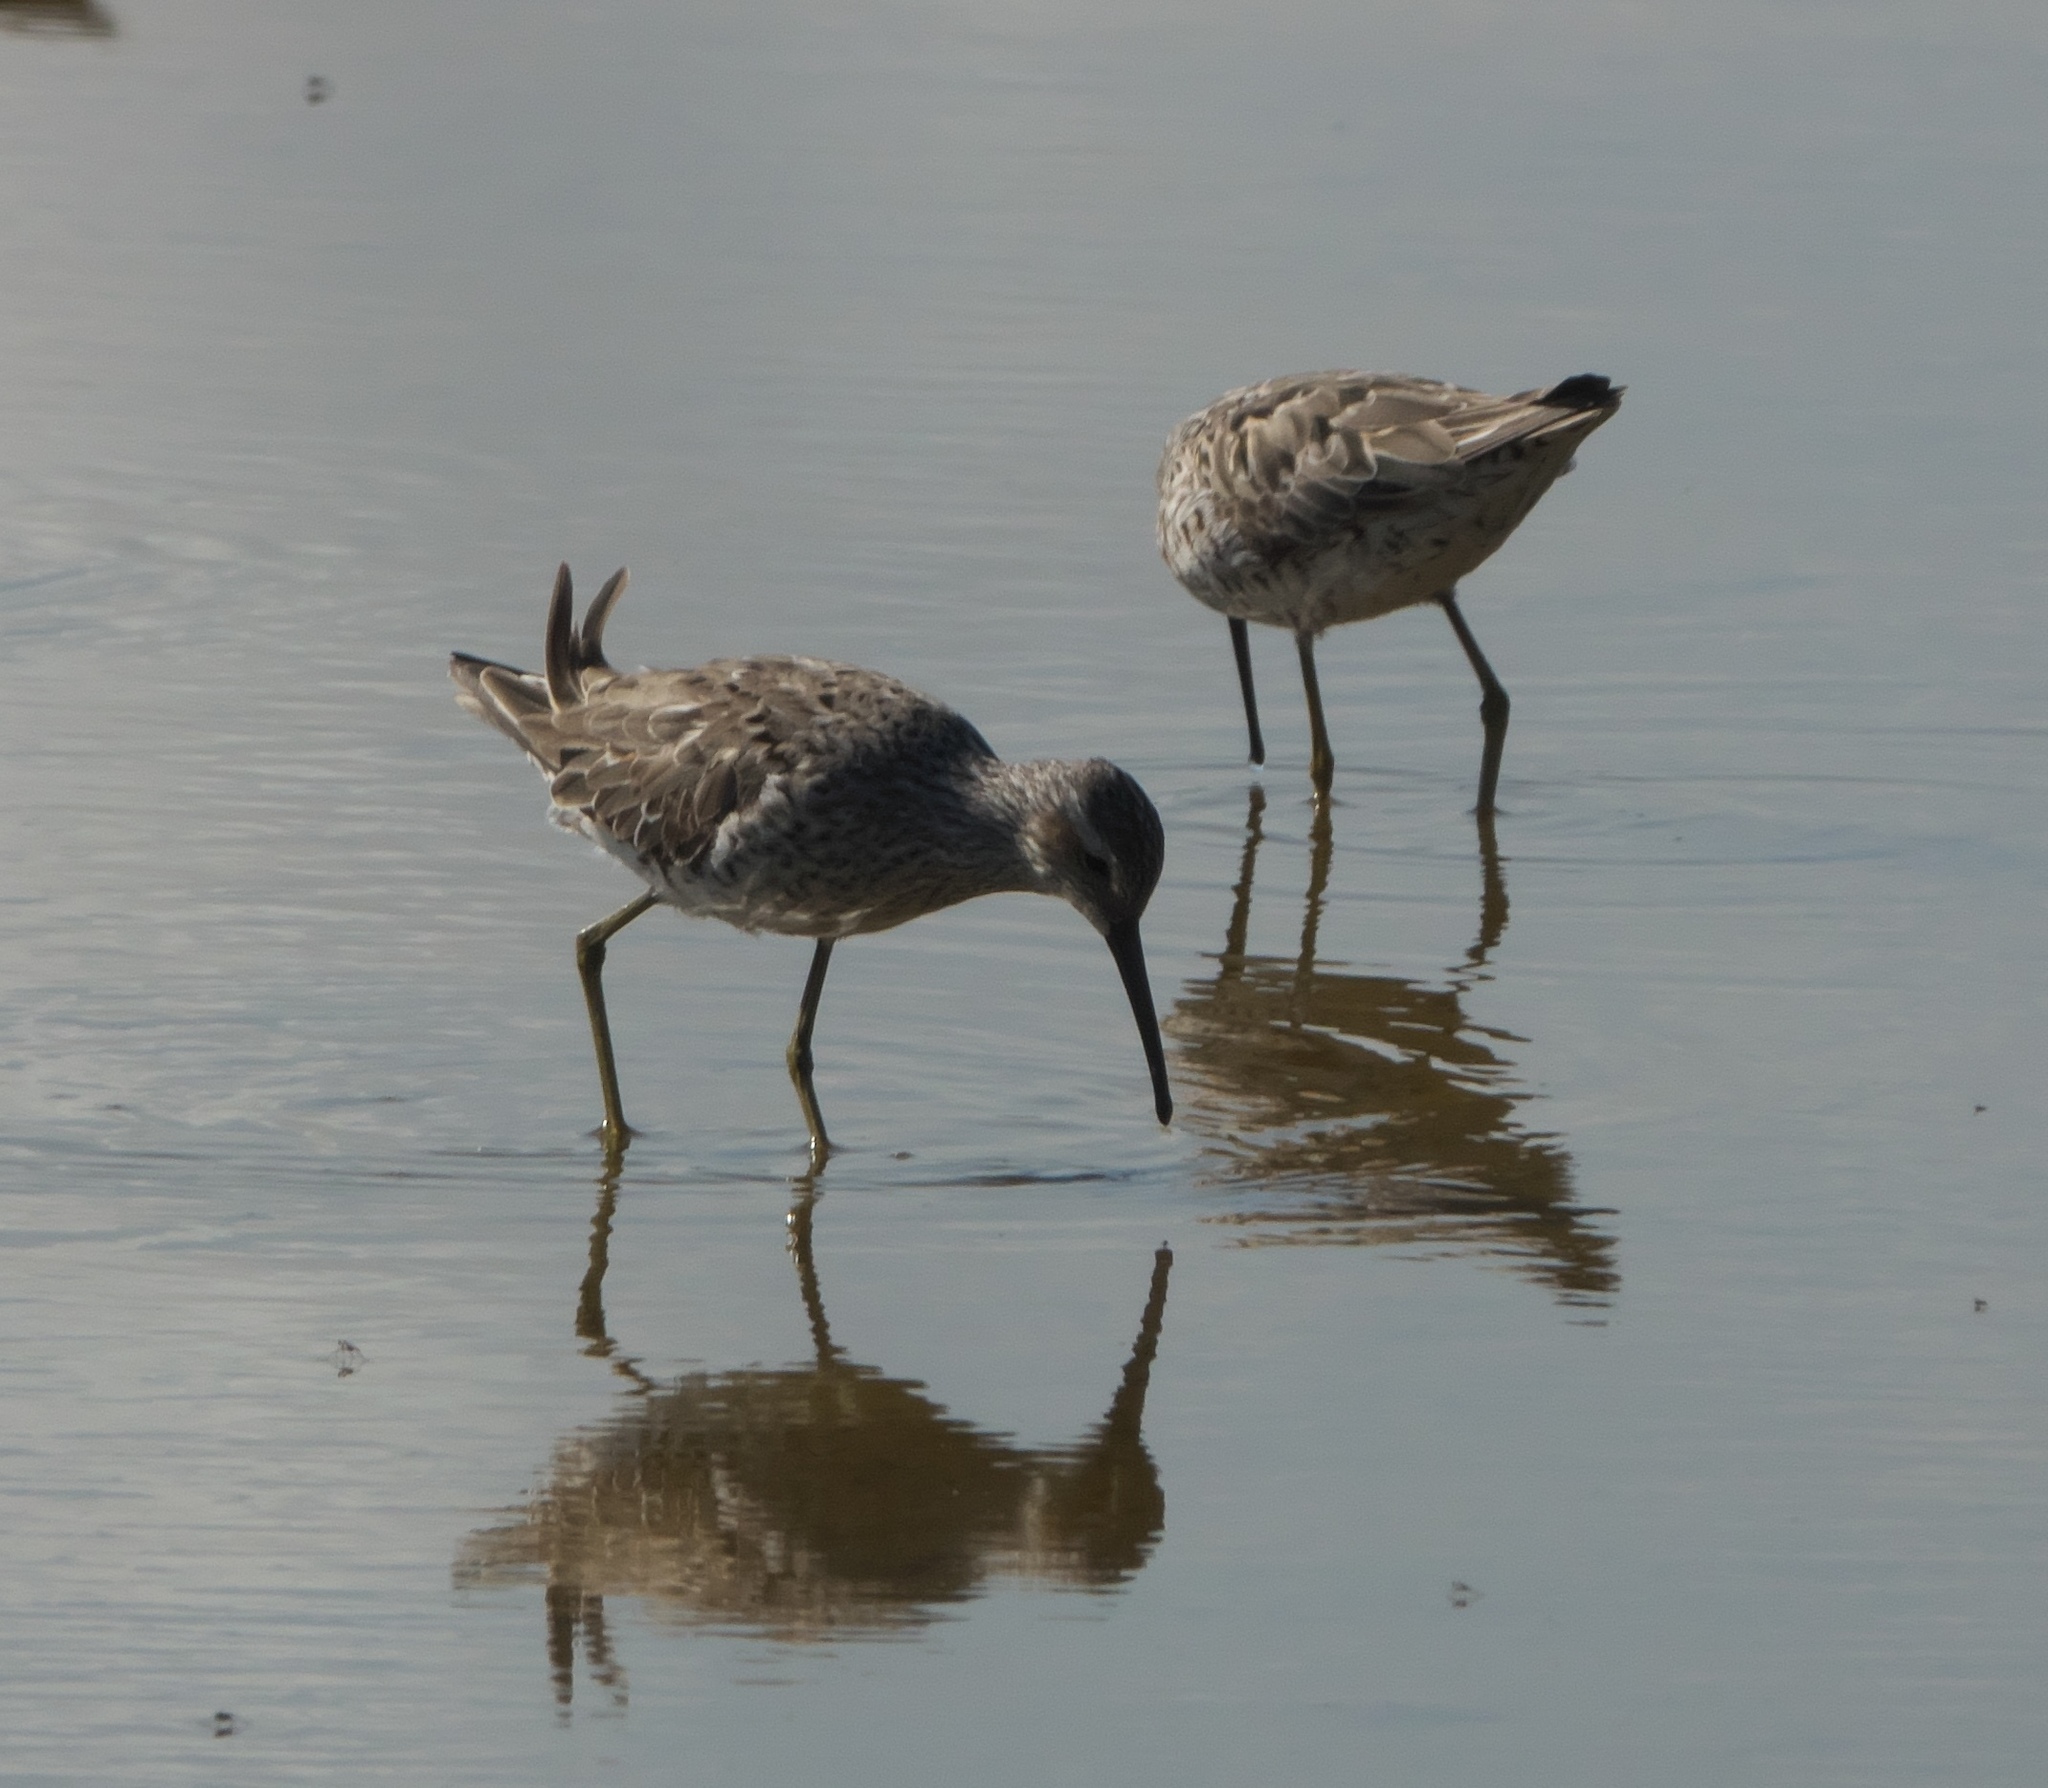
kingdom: Animalia
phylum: Chordata
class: Aves
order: Charadriiformes
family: Scolopacidae
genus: Calidris
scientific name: Calidris himantopus
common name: Stilt sandpiper
